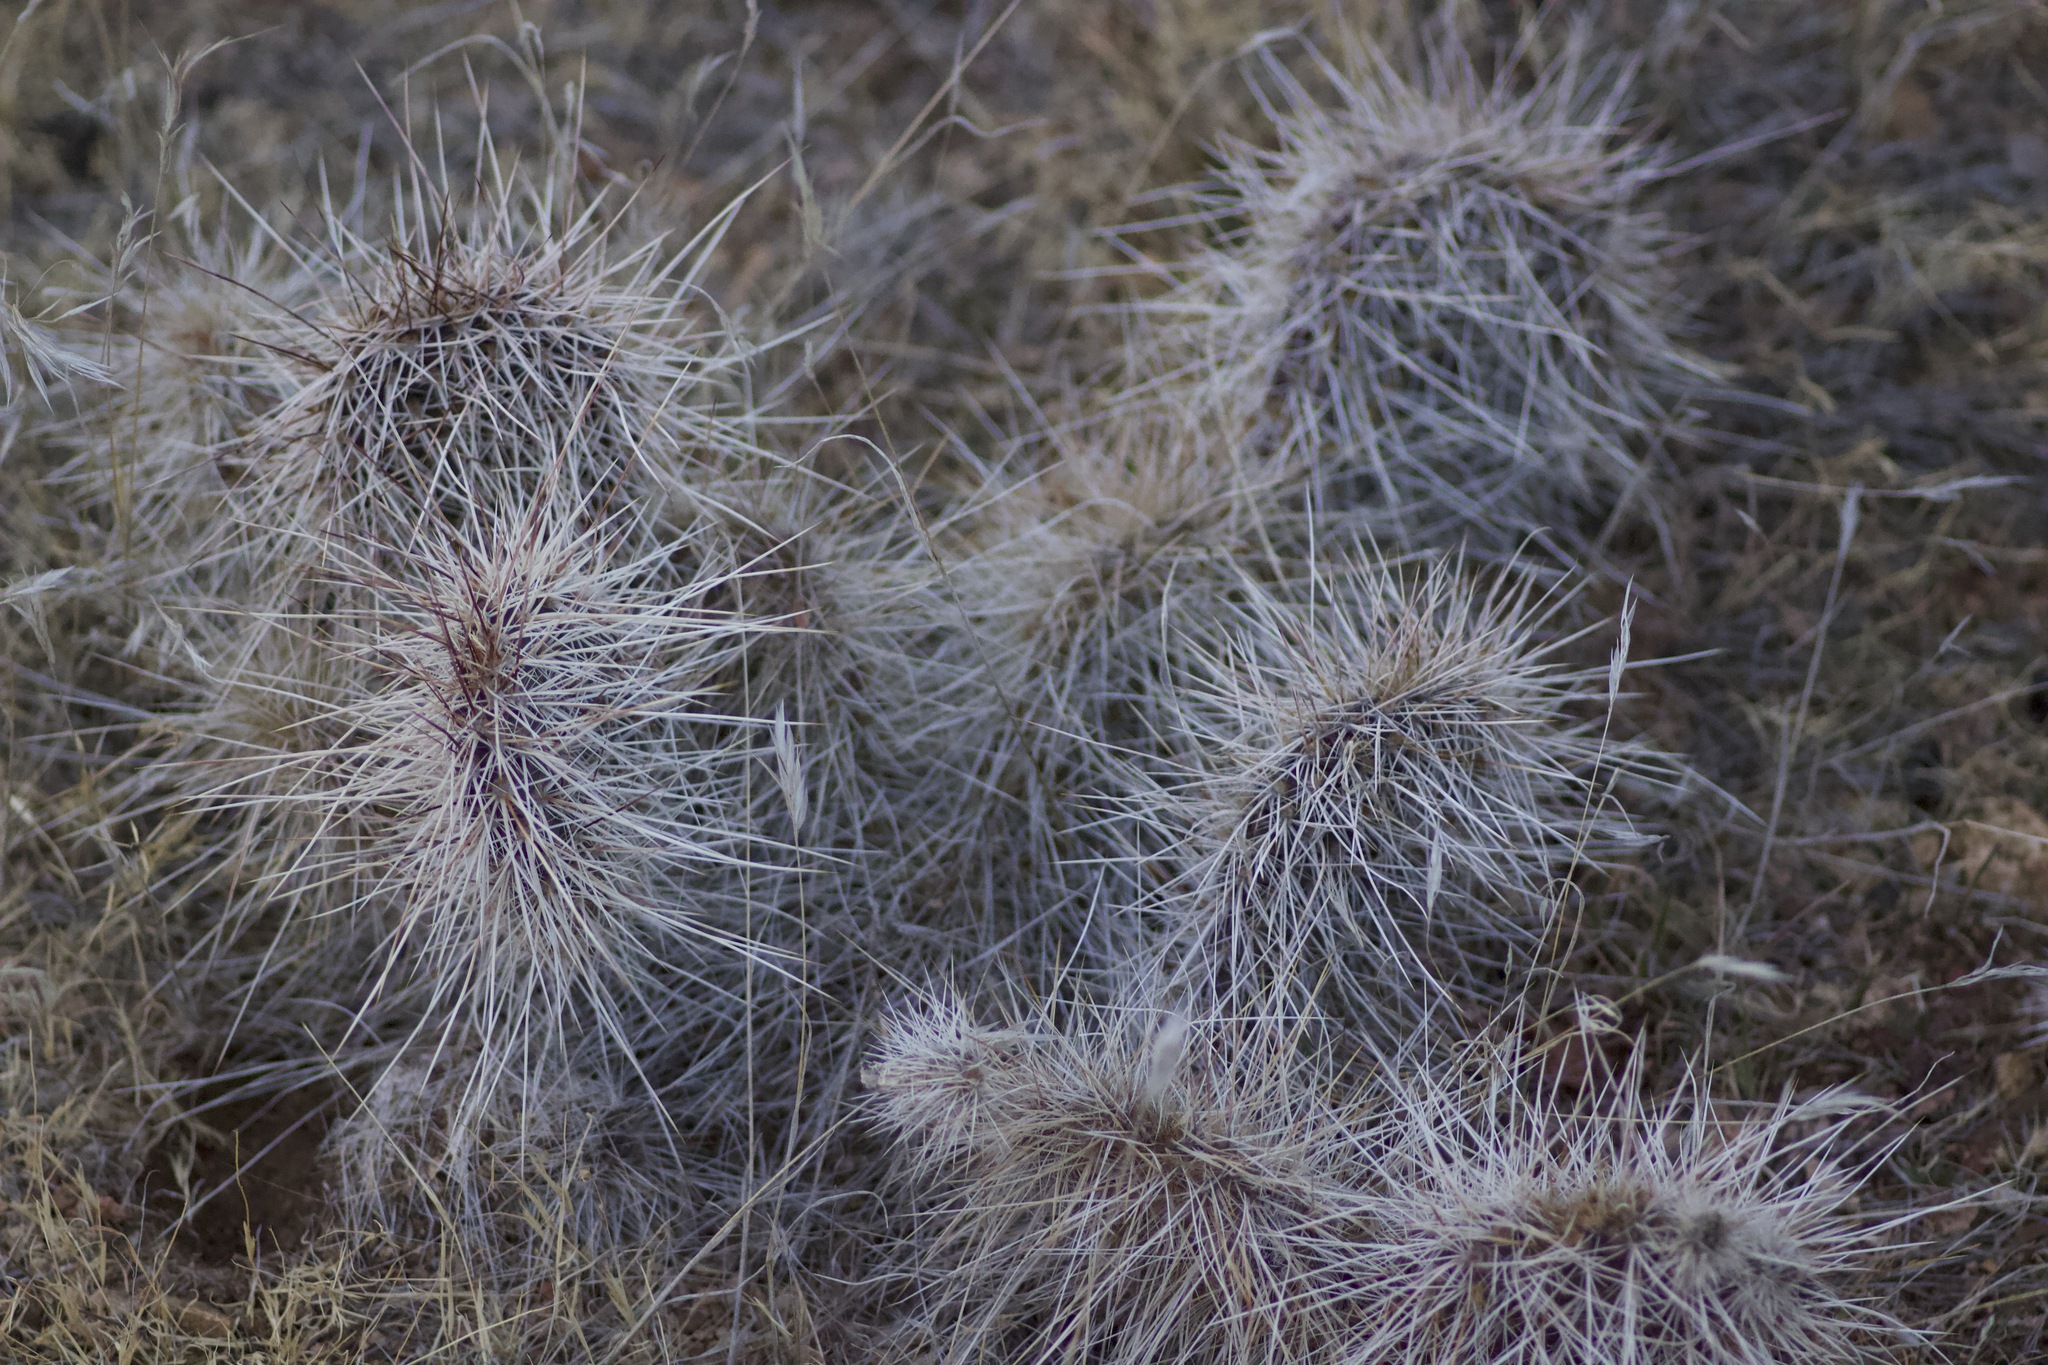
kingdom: Plantae
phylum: Tracheophyta
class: Magnoliopsida
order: Caryophyllales
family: Cactaceae
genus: Opuntia
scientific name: Opuntia polyacantha
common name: Plains prickly-pear
